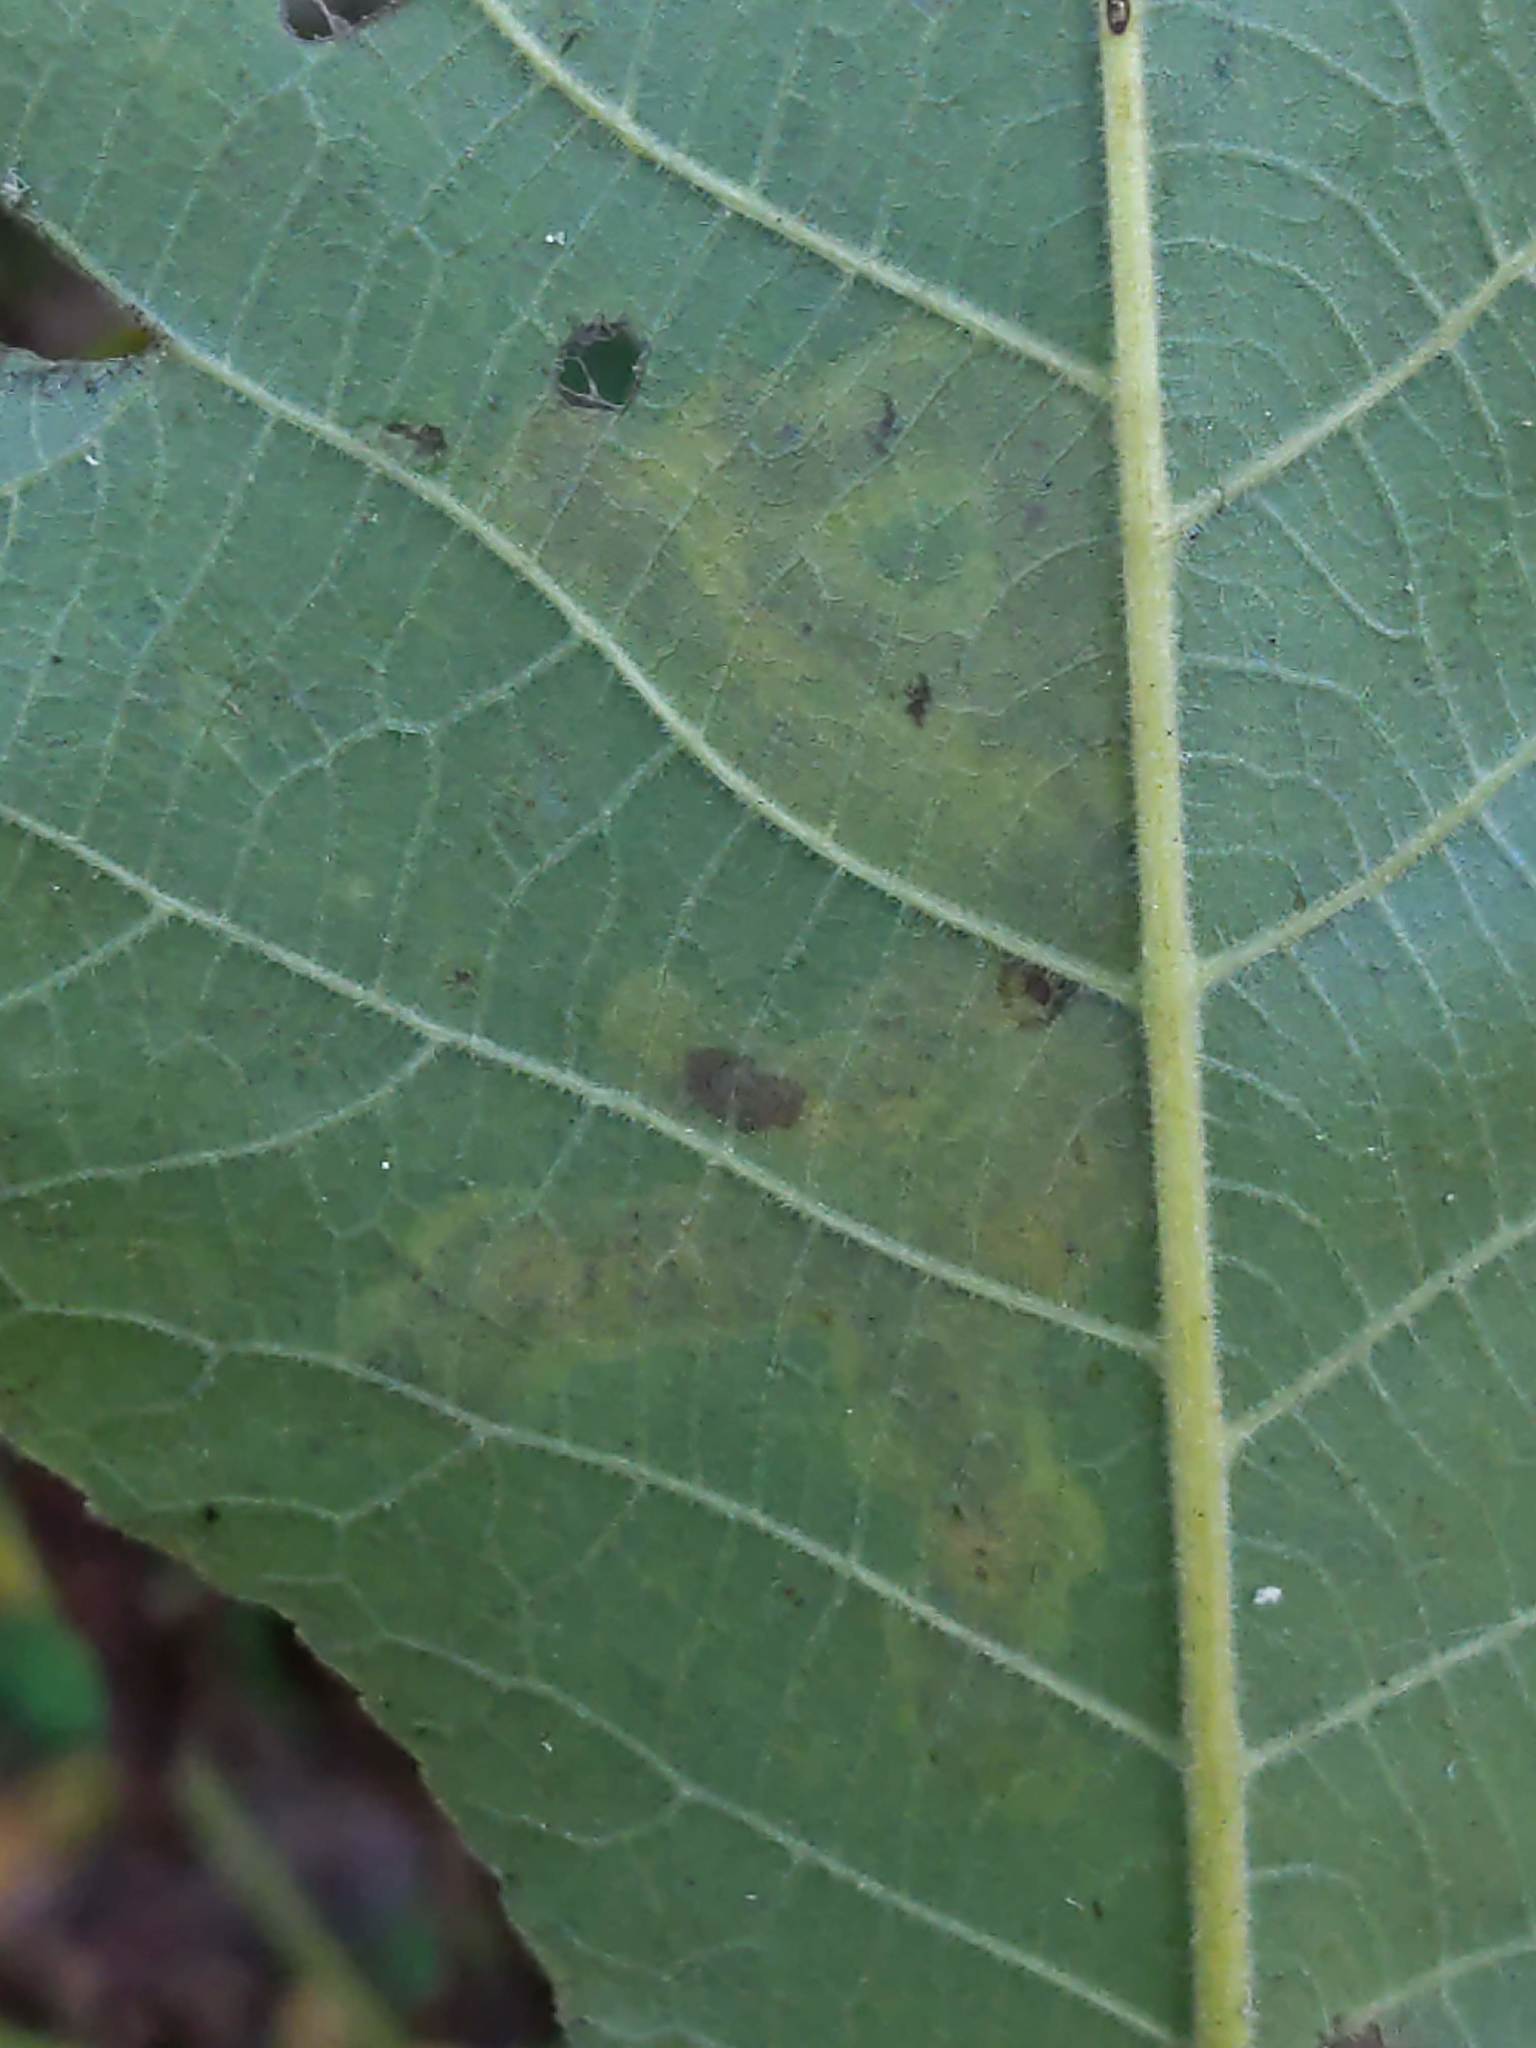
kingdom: Animalia
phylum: Arthropoda
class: Insecta
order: Lepidoptera
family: Gracillariidae
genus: Cameraria
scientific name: Cameraria caryaefoliella
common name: Pecan leafminer moth
